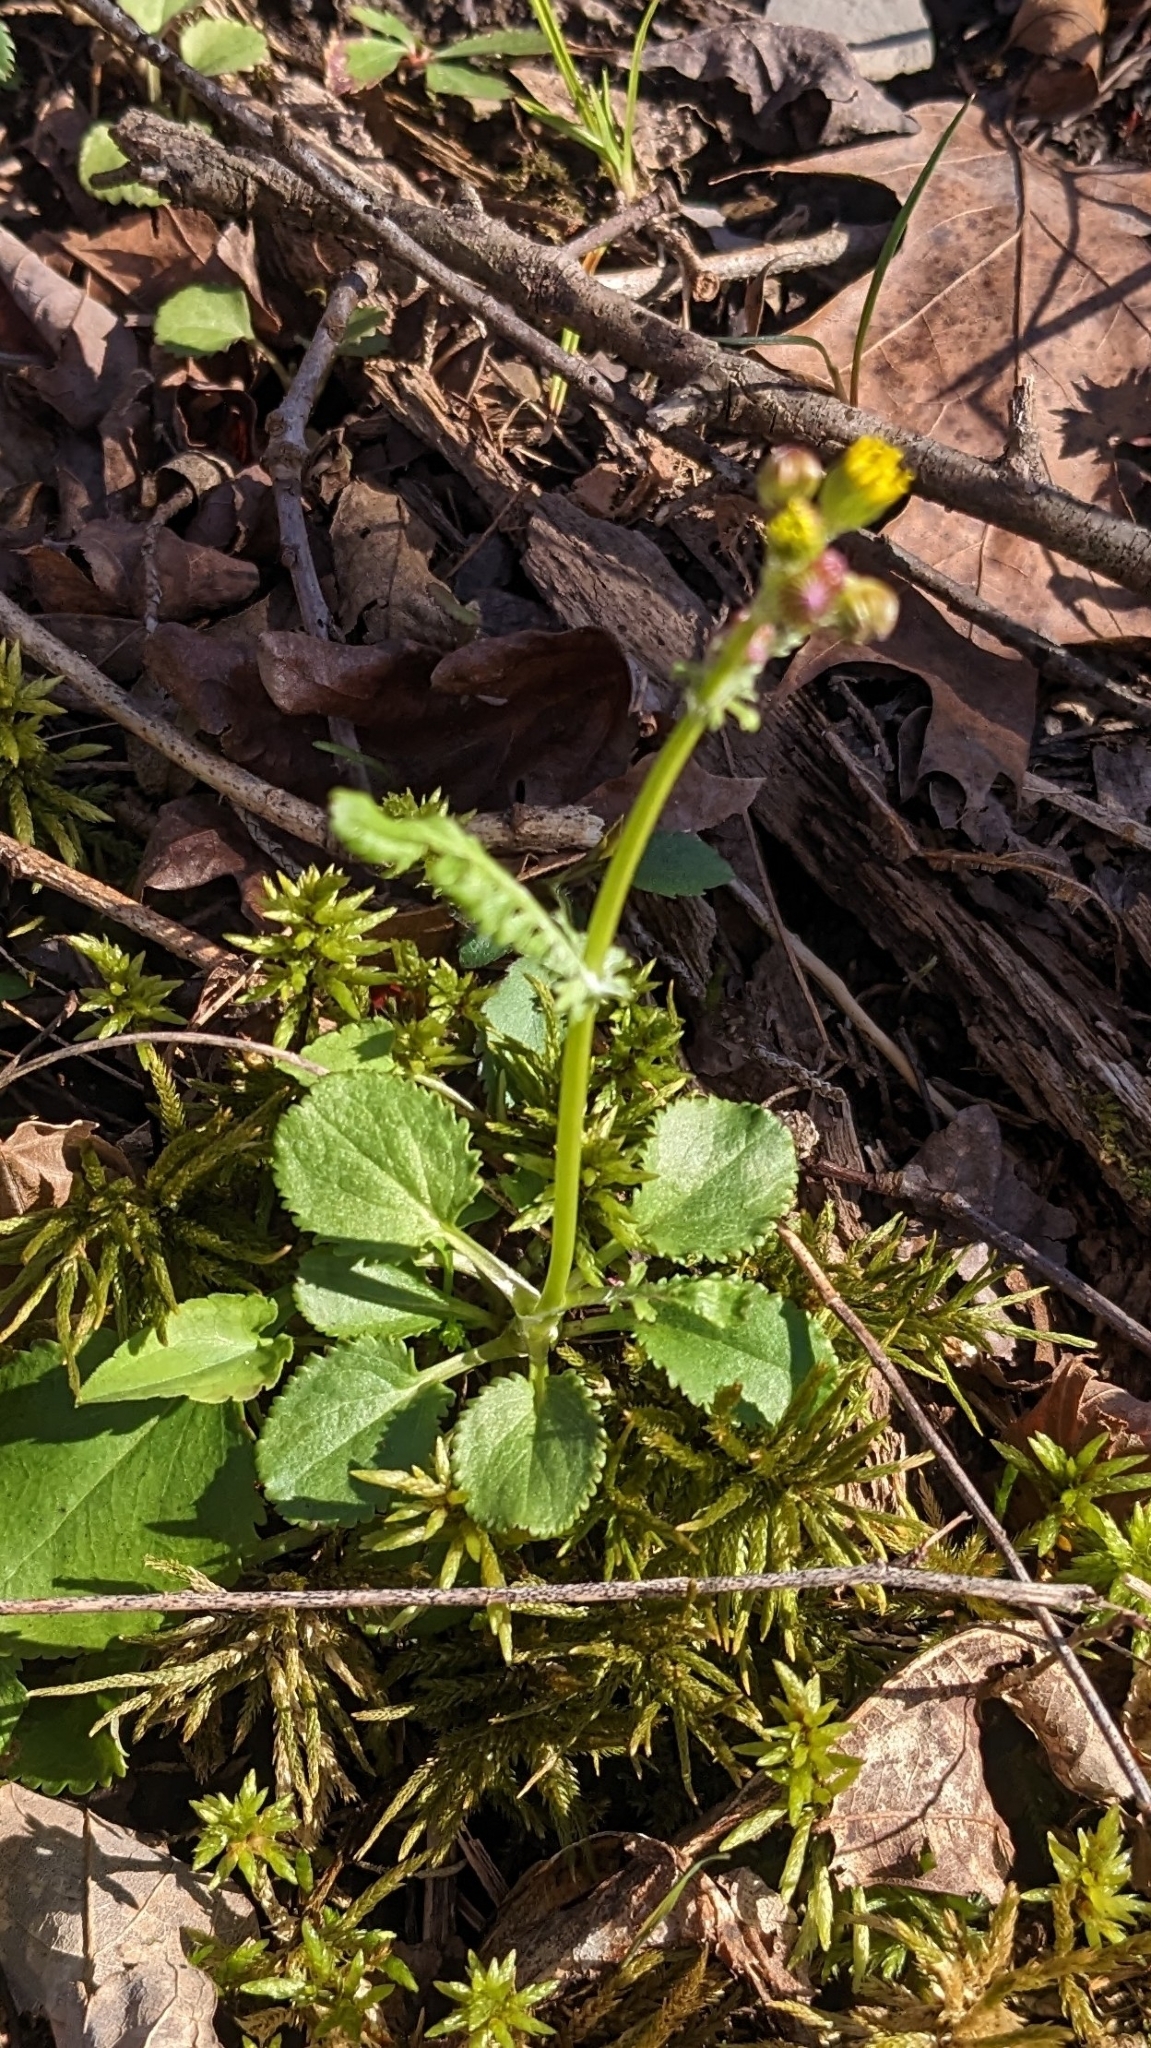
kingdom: Plantae
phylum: Tracheophyta
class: Magnoliopsida
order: Asterales
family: Asteraceae
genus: Packera
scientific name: Packera obovata
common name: Round-leaf ragwort
